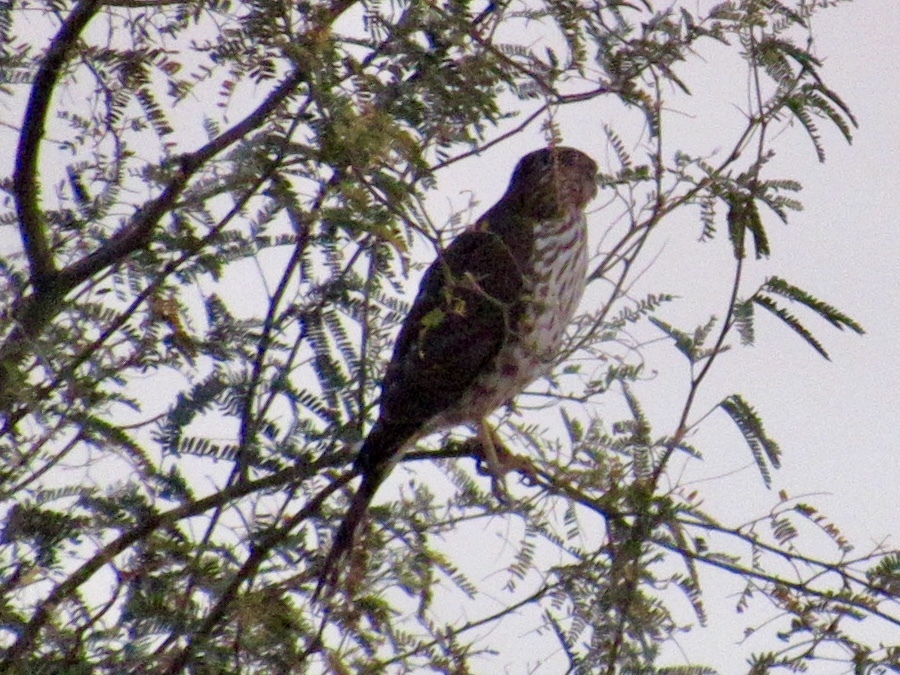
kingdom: Animalia
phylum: Chordata
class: Aves
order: Accipitriformes
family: Accipitridae
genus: Accipiter
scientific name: Accipiter cooperii
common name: Cooper's hawk
